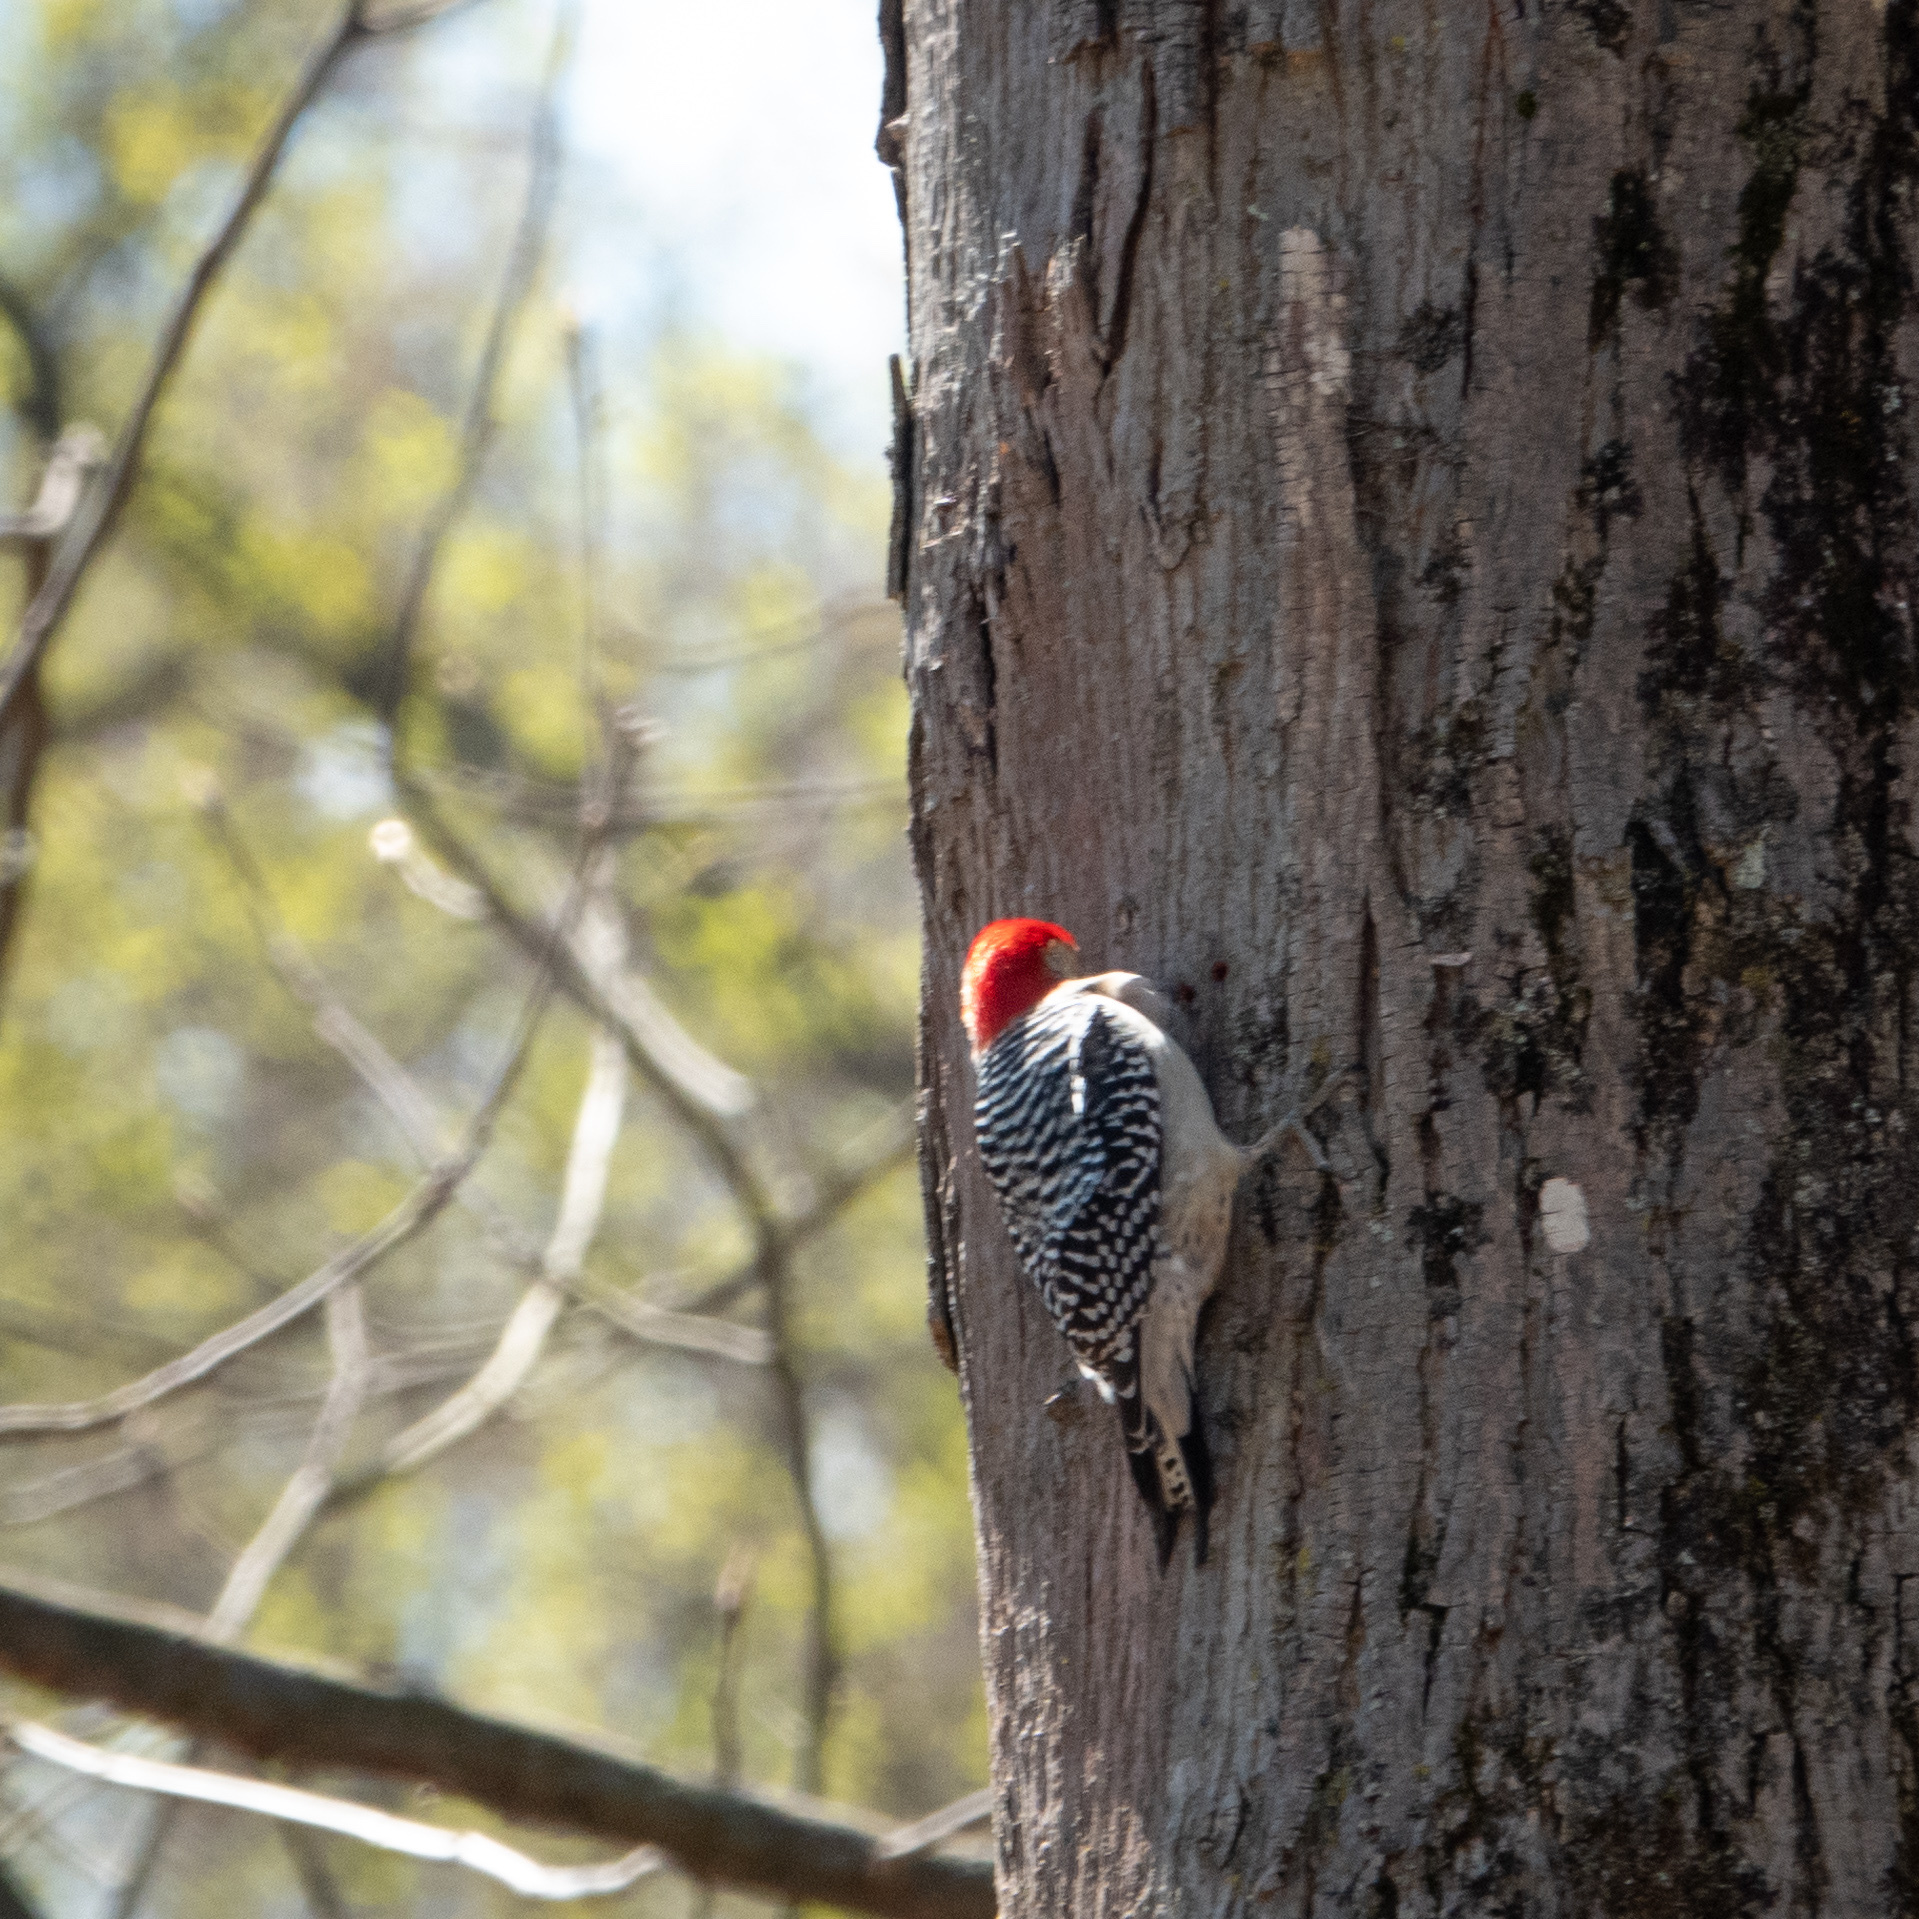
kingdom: Animalia
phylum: Chordata
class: Aves
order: Piciformes
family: Picidae
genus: Melanerpes
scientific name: Melanerpes carolinus
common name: Red-bellied woodpecker
